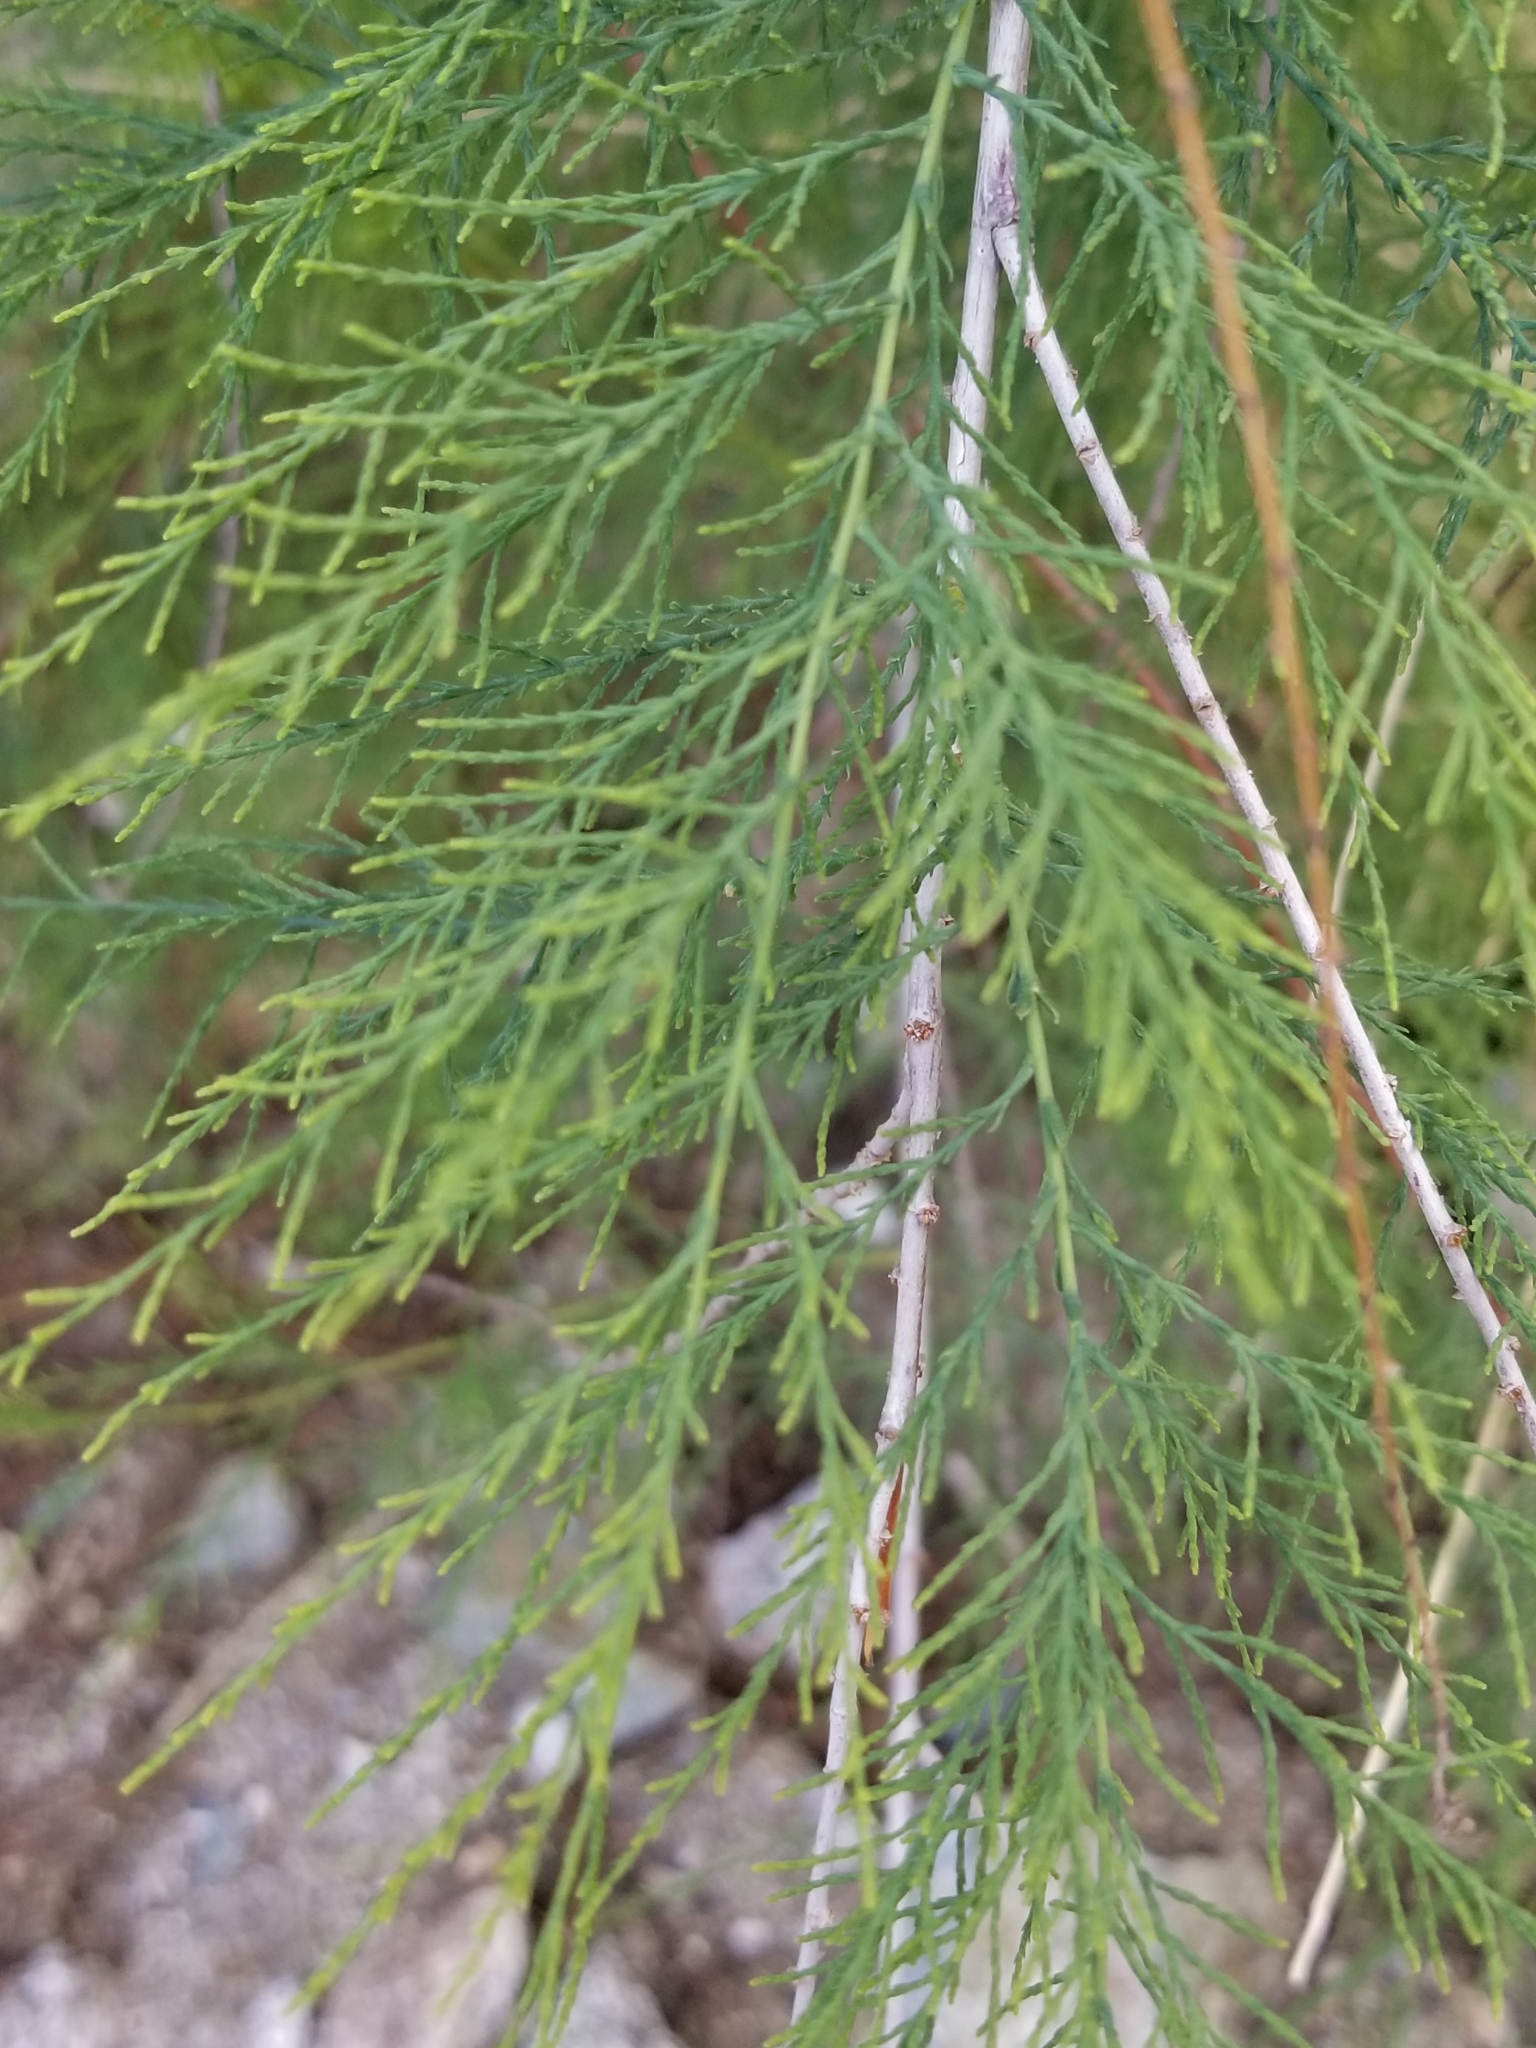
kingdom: Plantae
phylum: Tracheophyta
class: Magnoliopsida
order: Caryophyllales
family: Tamaricaceae
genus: Tamarix
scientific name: Tamarix ramosissima
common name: Pink tamarisk
